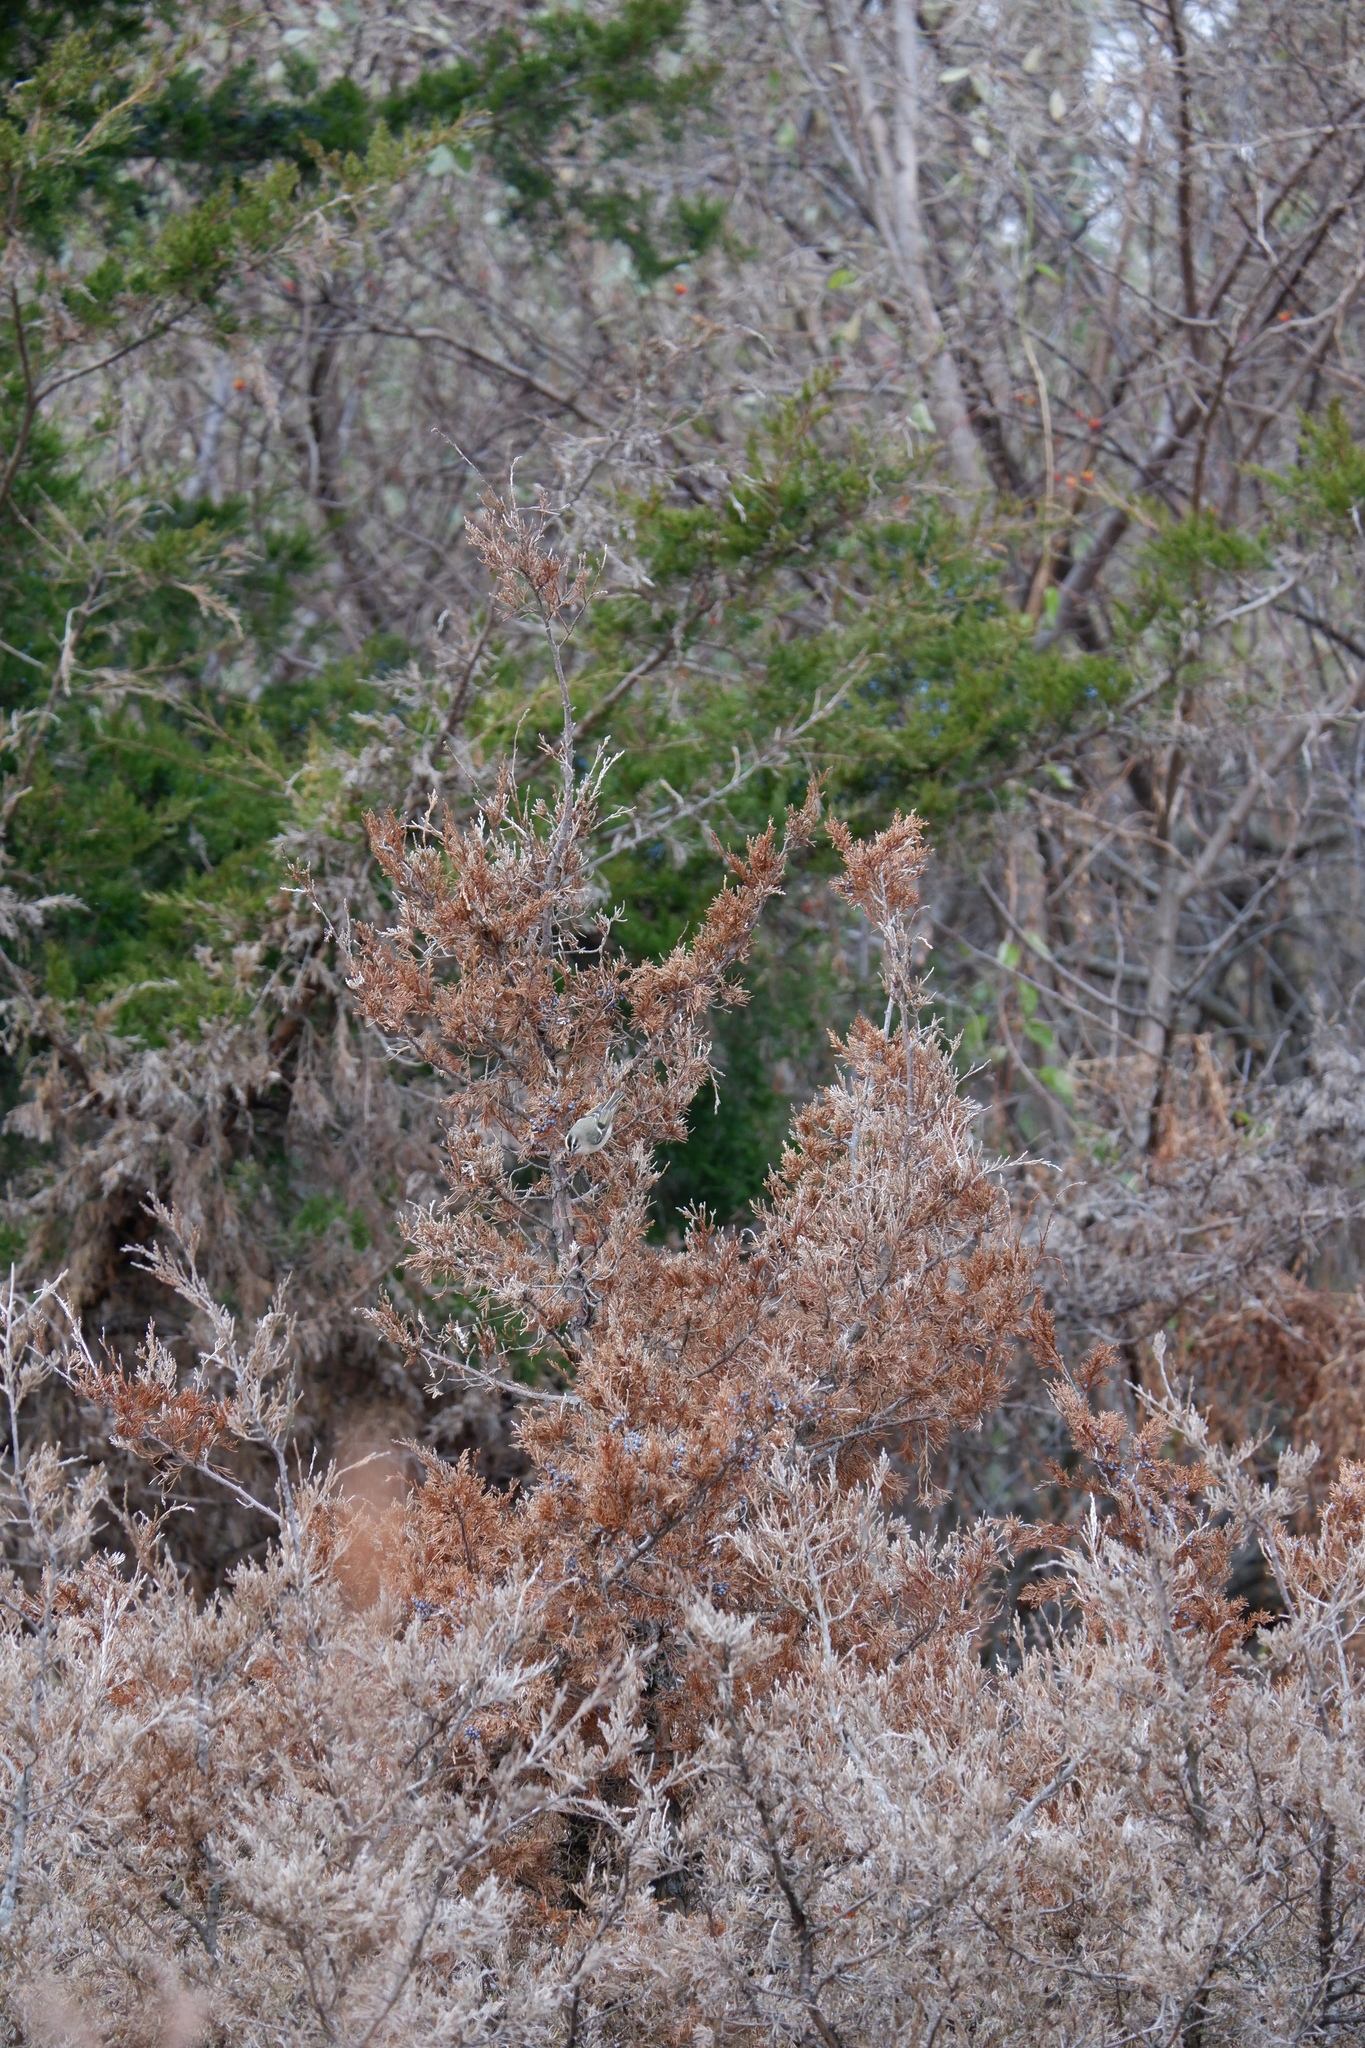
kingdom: Animalia
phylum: Chordata
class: Aves
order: Passeriformes
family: Regulidae
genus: Regulus
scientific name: Regulus satrapa
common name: Golden-crowned kinglet
